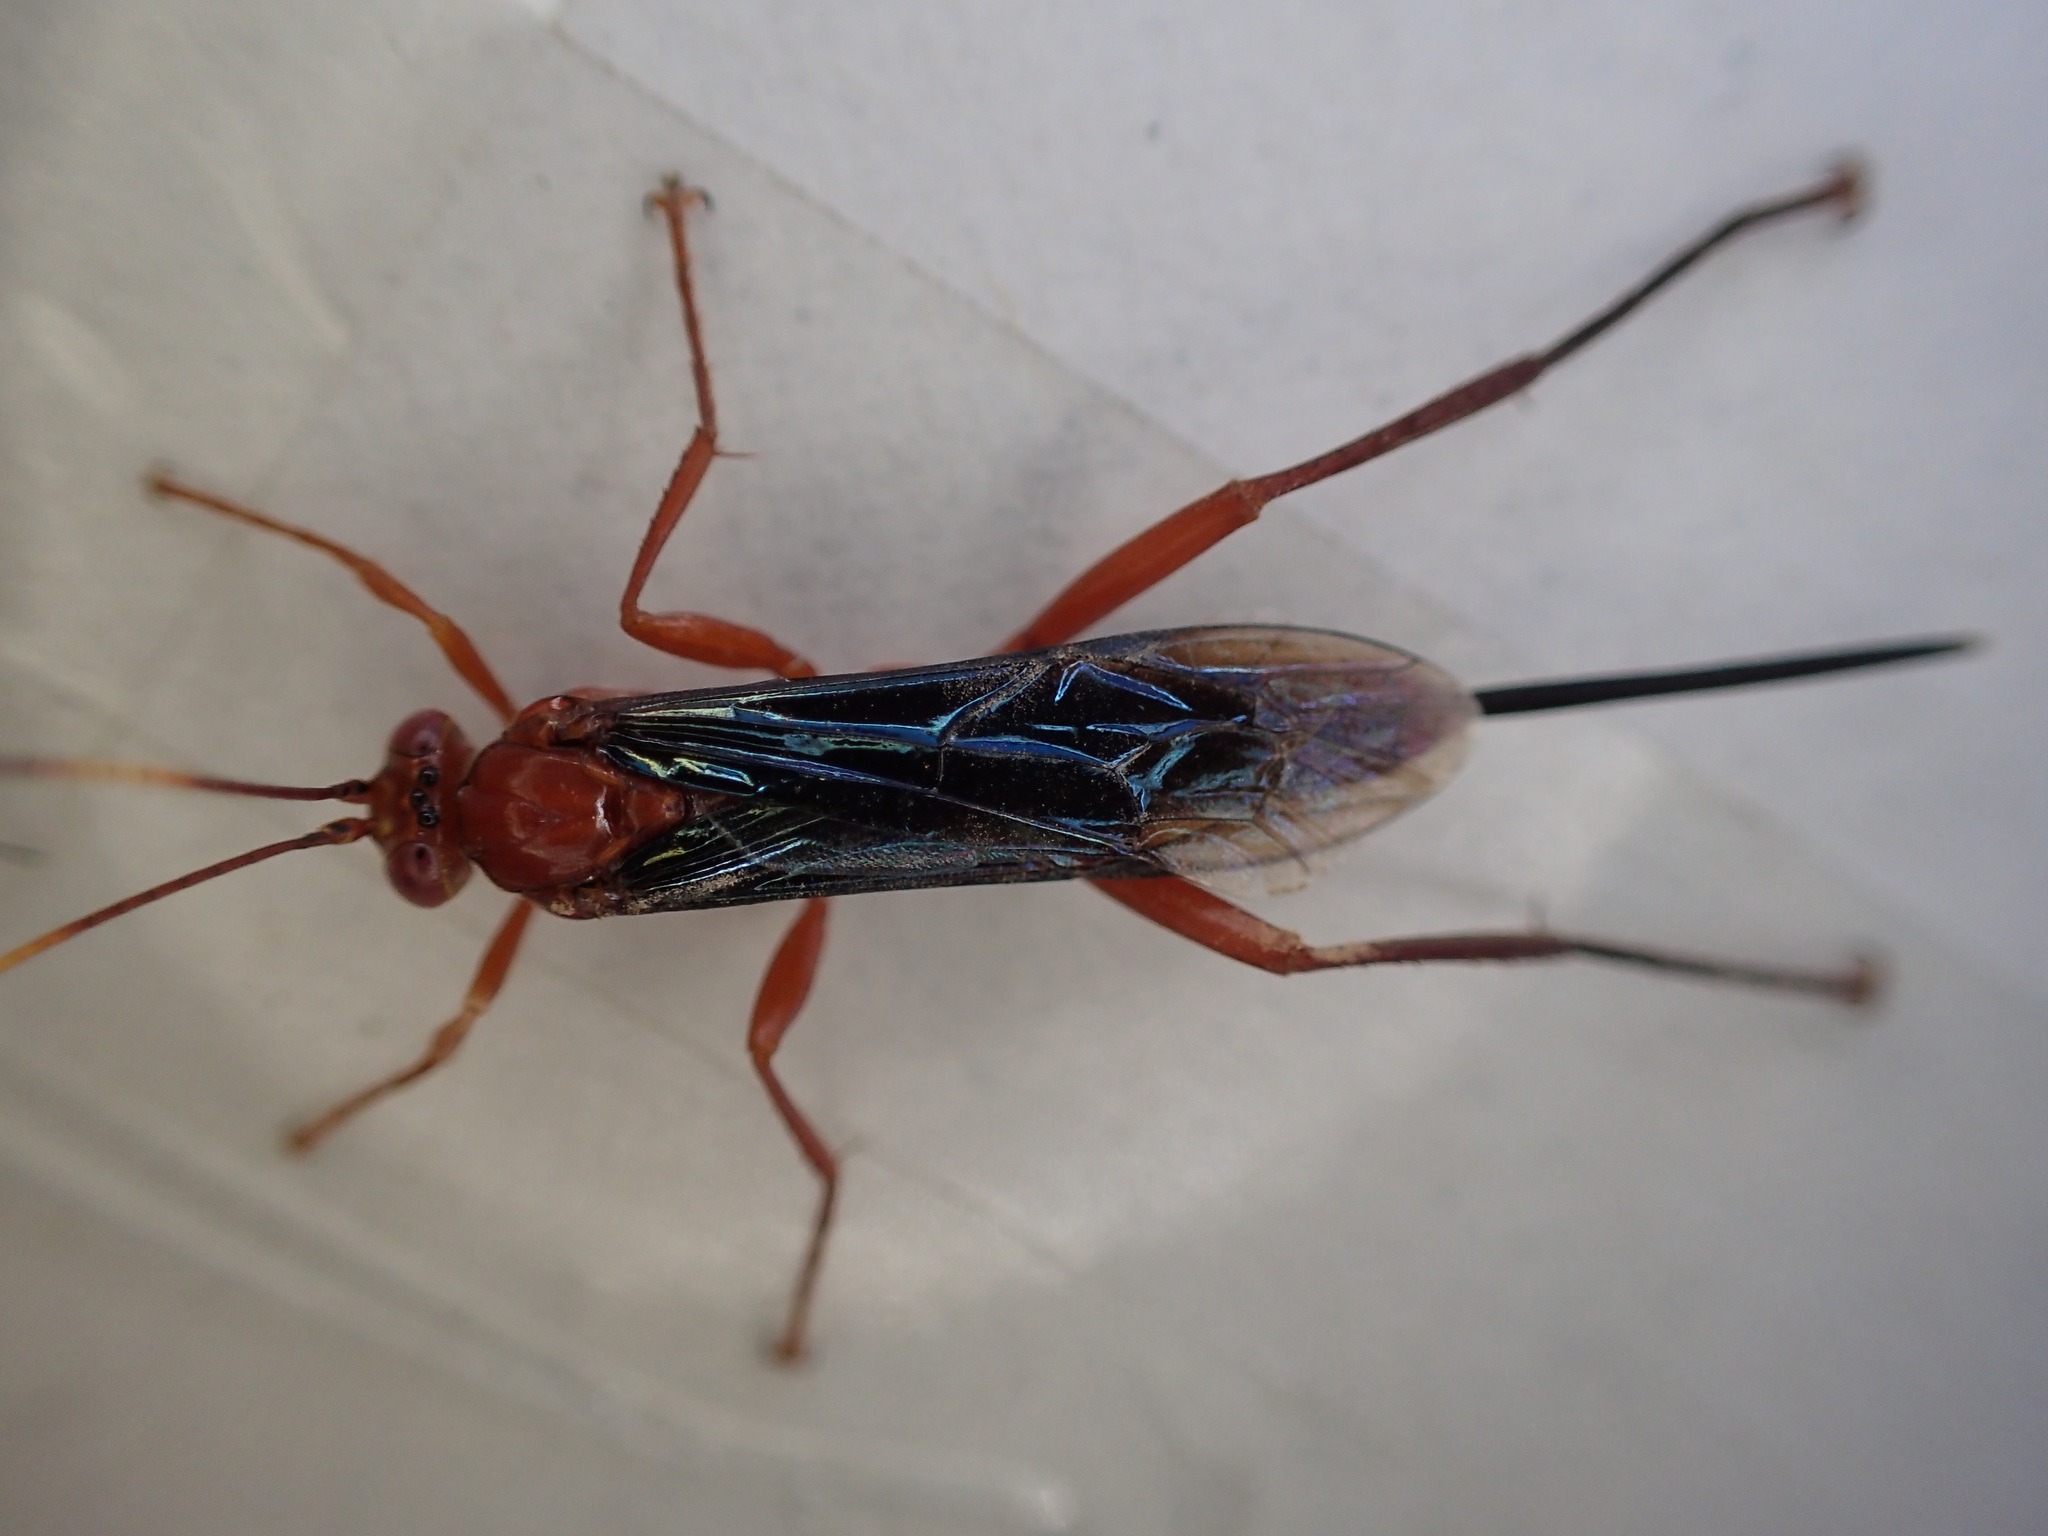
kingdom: Animalia
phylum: Arthropoda
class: Insecta
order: Hymenoptera
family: Ichneumonidae
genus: Lissopimpla
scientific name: Lissopimpla excelsa
